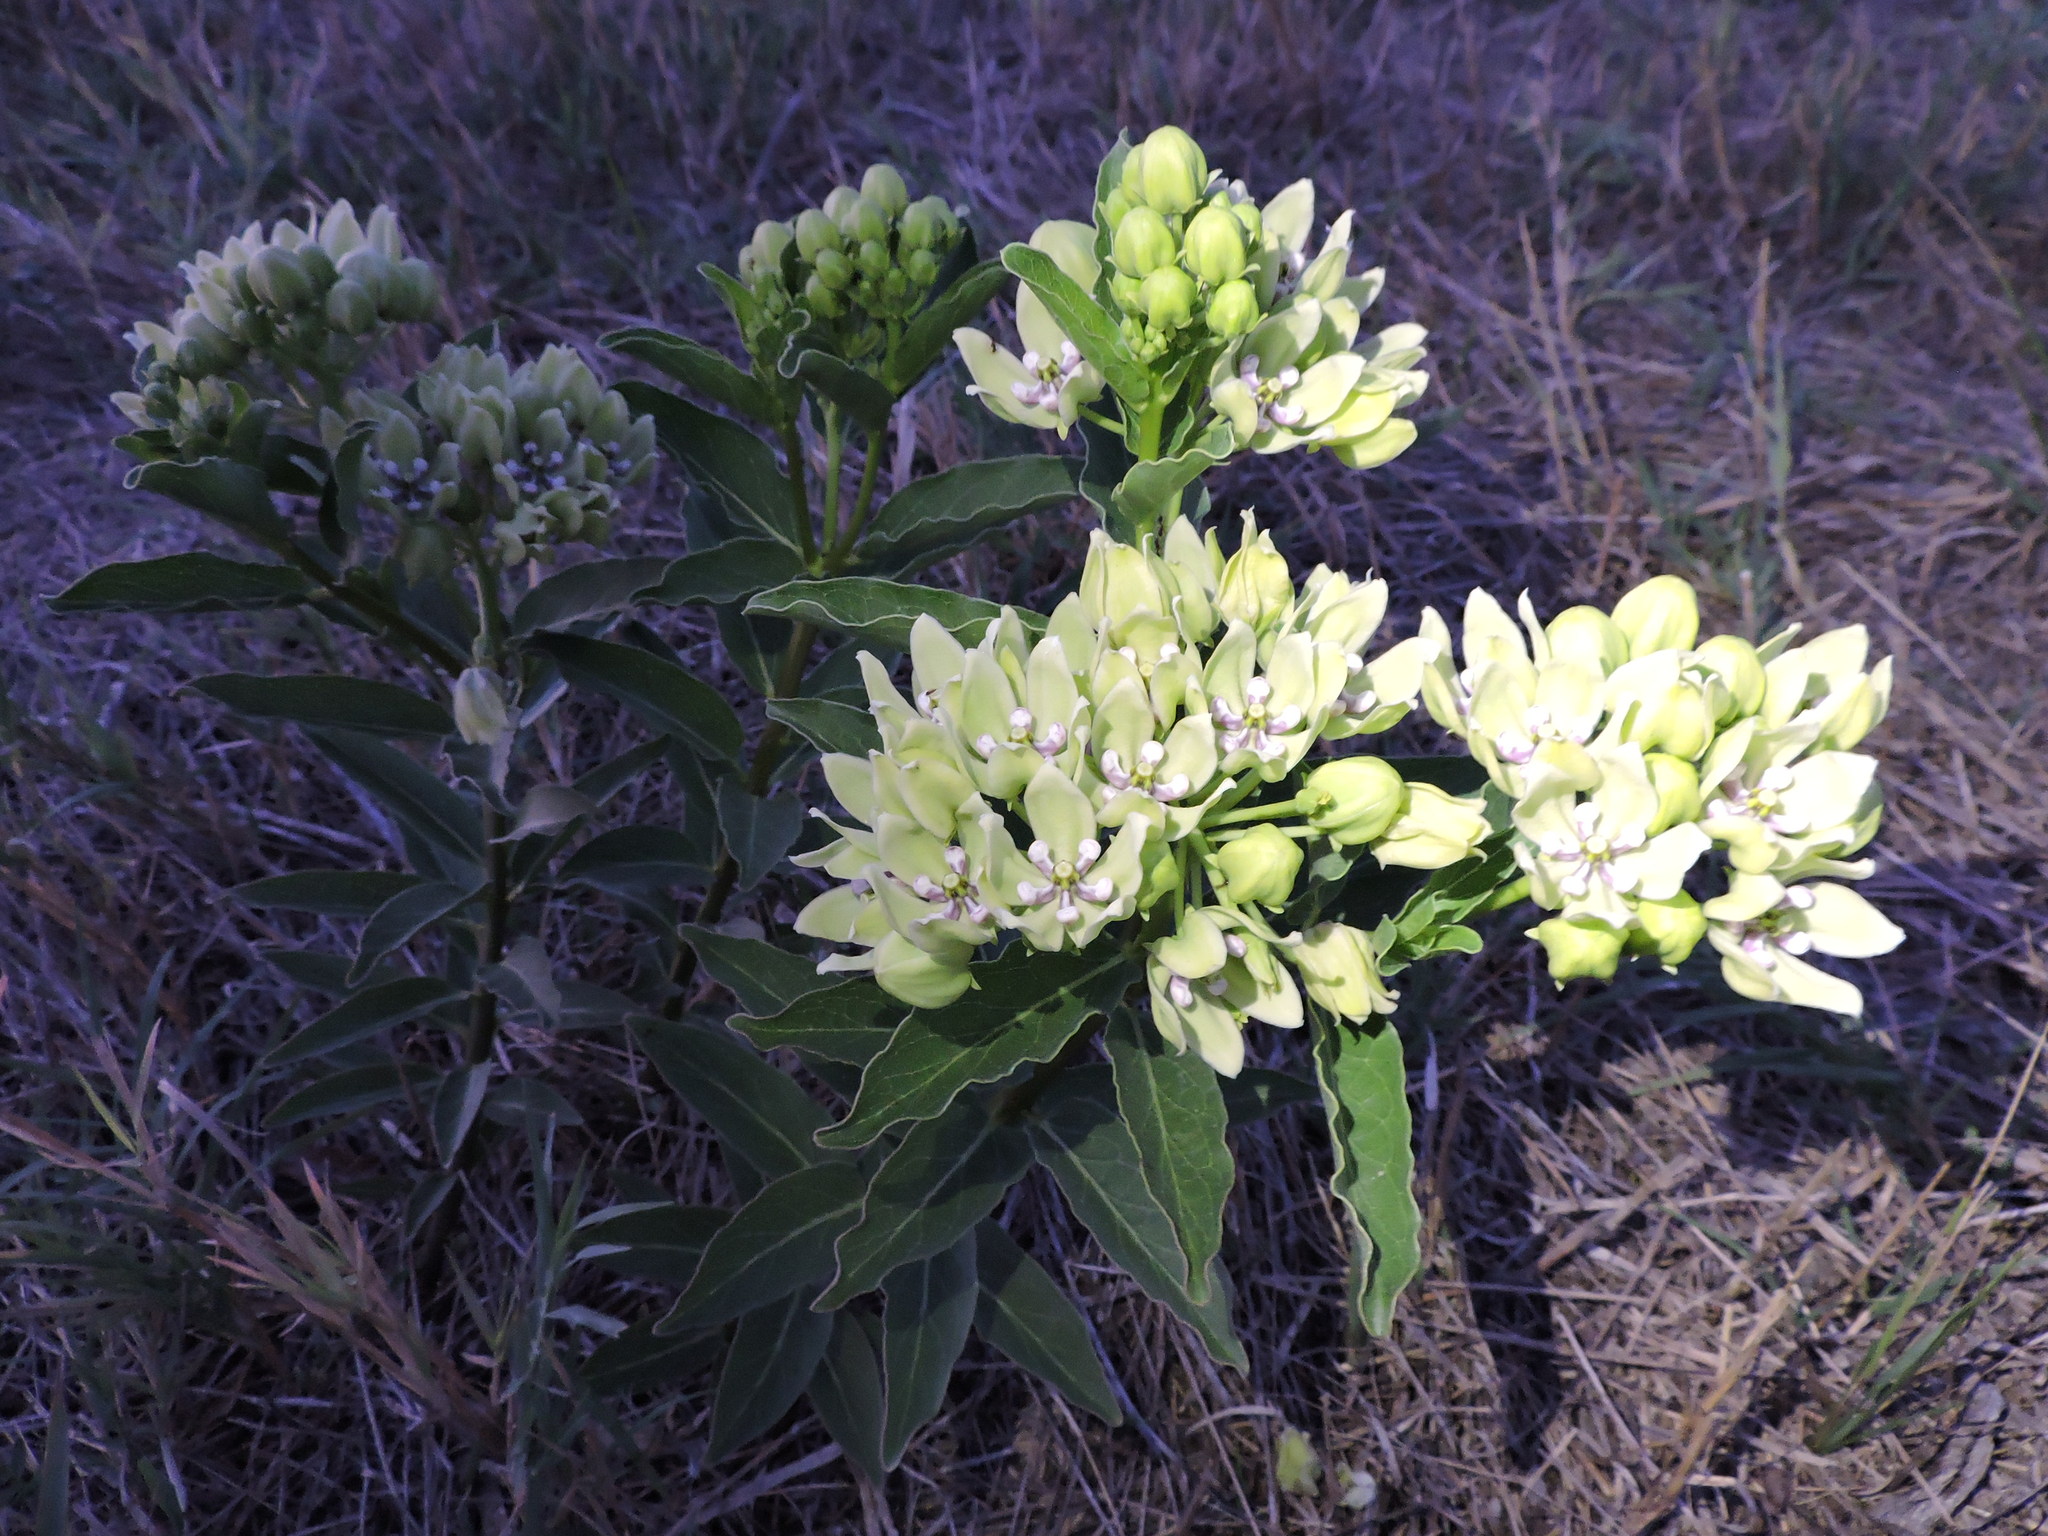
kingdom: Plantae
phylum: Tracheophyta
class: Magnoliopsida
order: Gentianales
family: Apocynaceae
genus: Asclepias
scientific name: Asclepias viridis
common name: Antelope-horns
